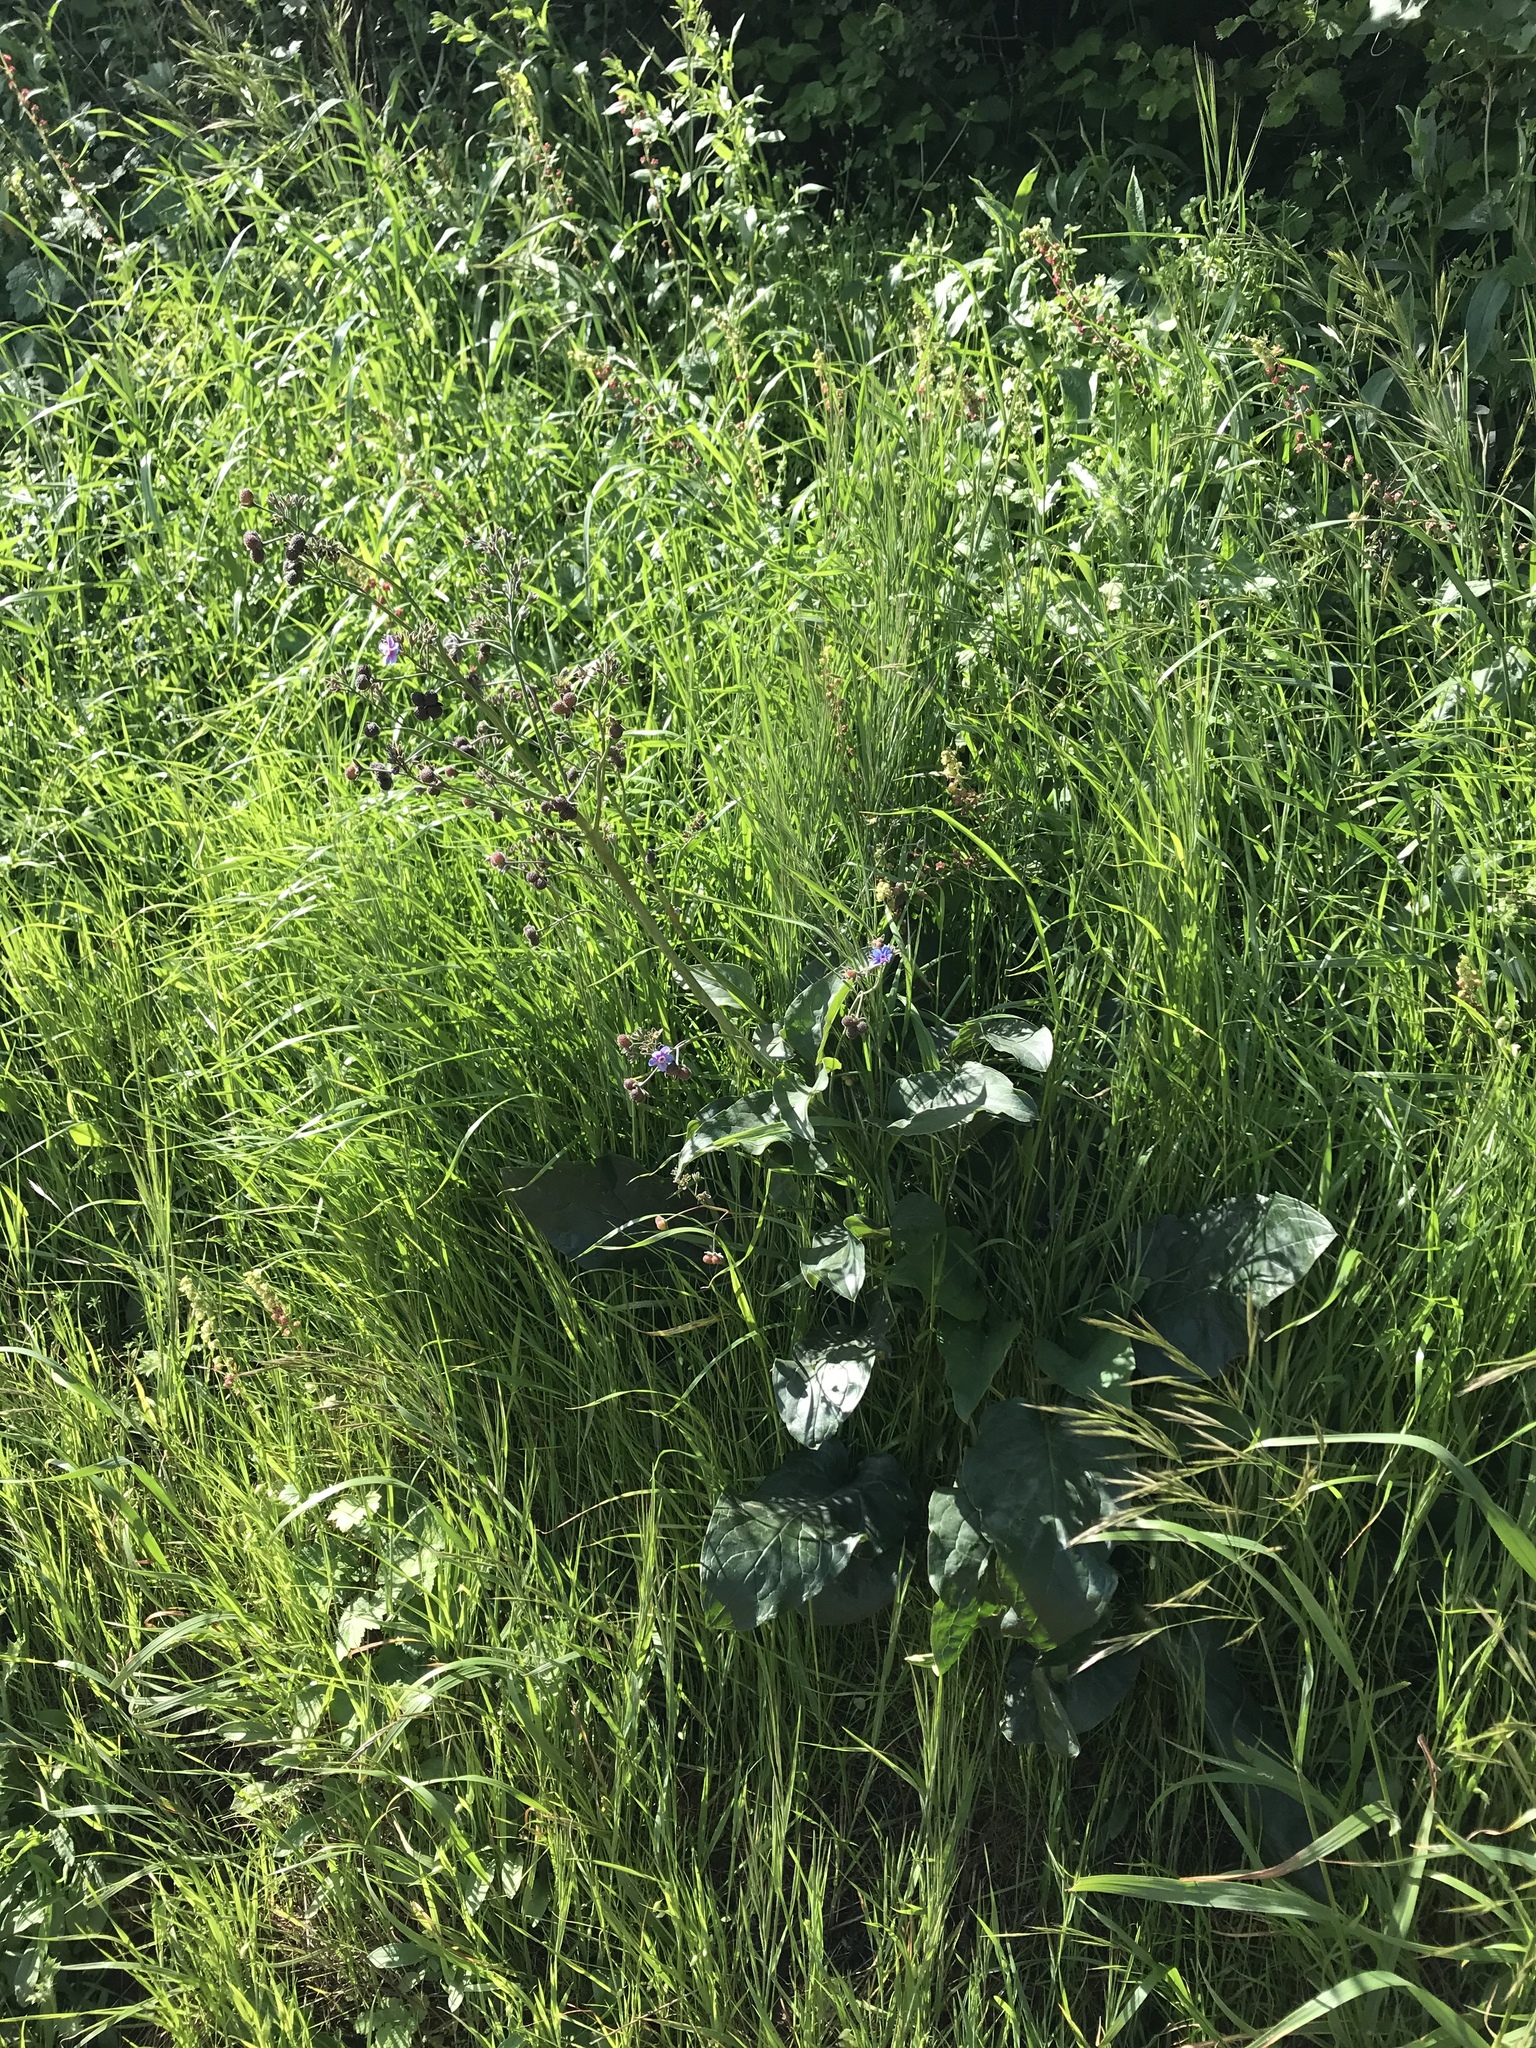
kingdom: Plantae
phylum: Tracheophyta
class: Magnoliopsida
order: Boraginales
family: Boraginaceae
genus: Adelinia
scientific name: Adelinia grande
